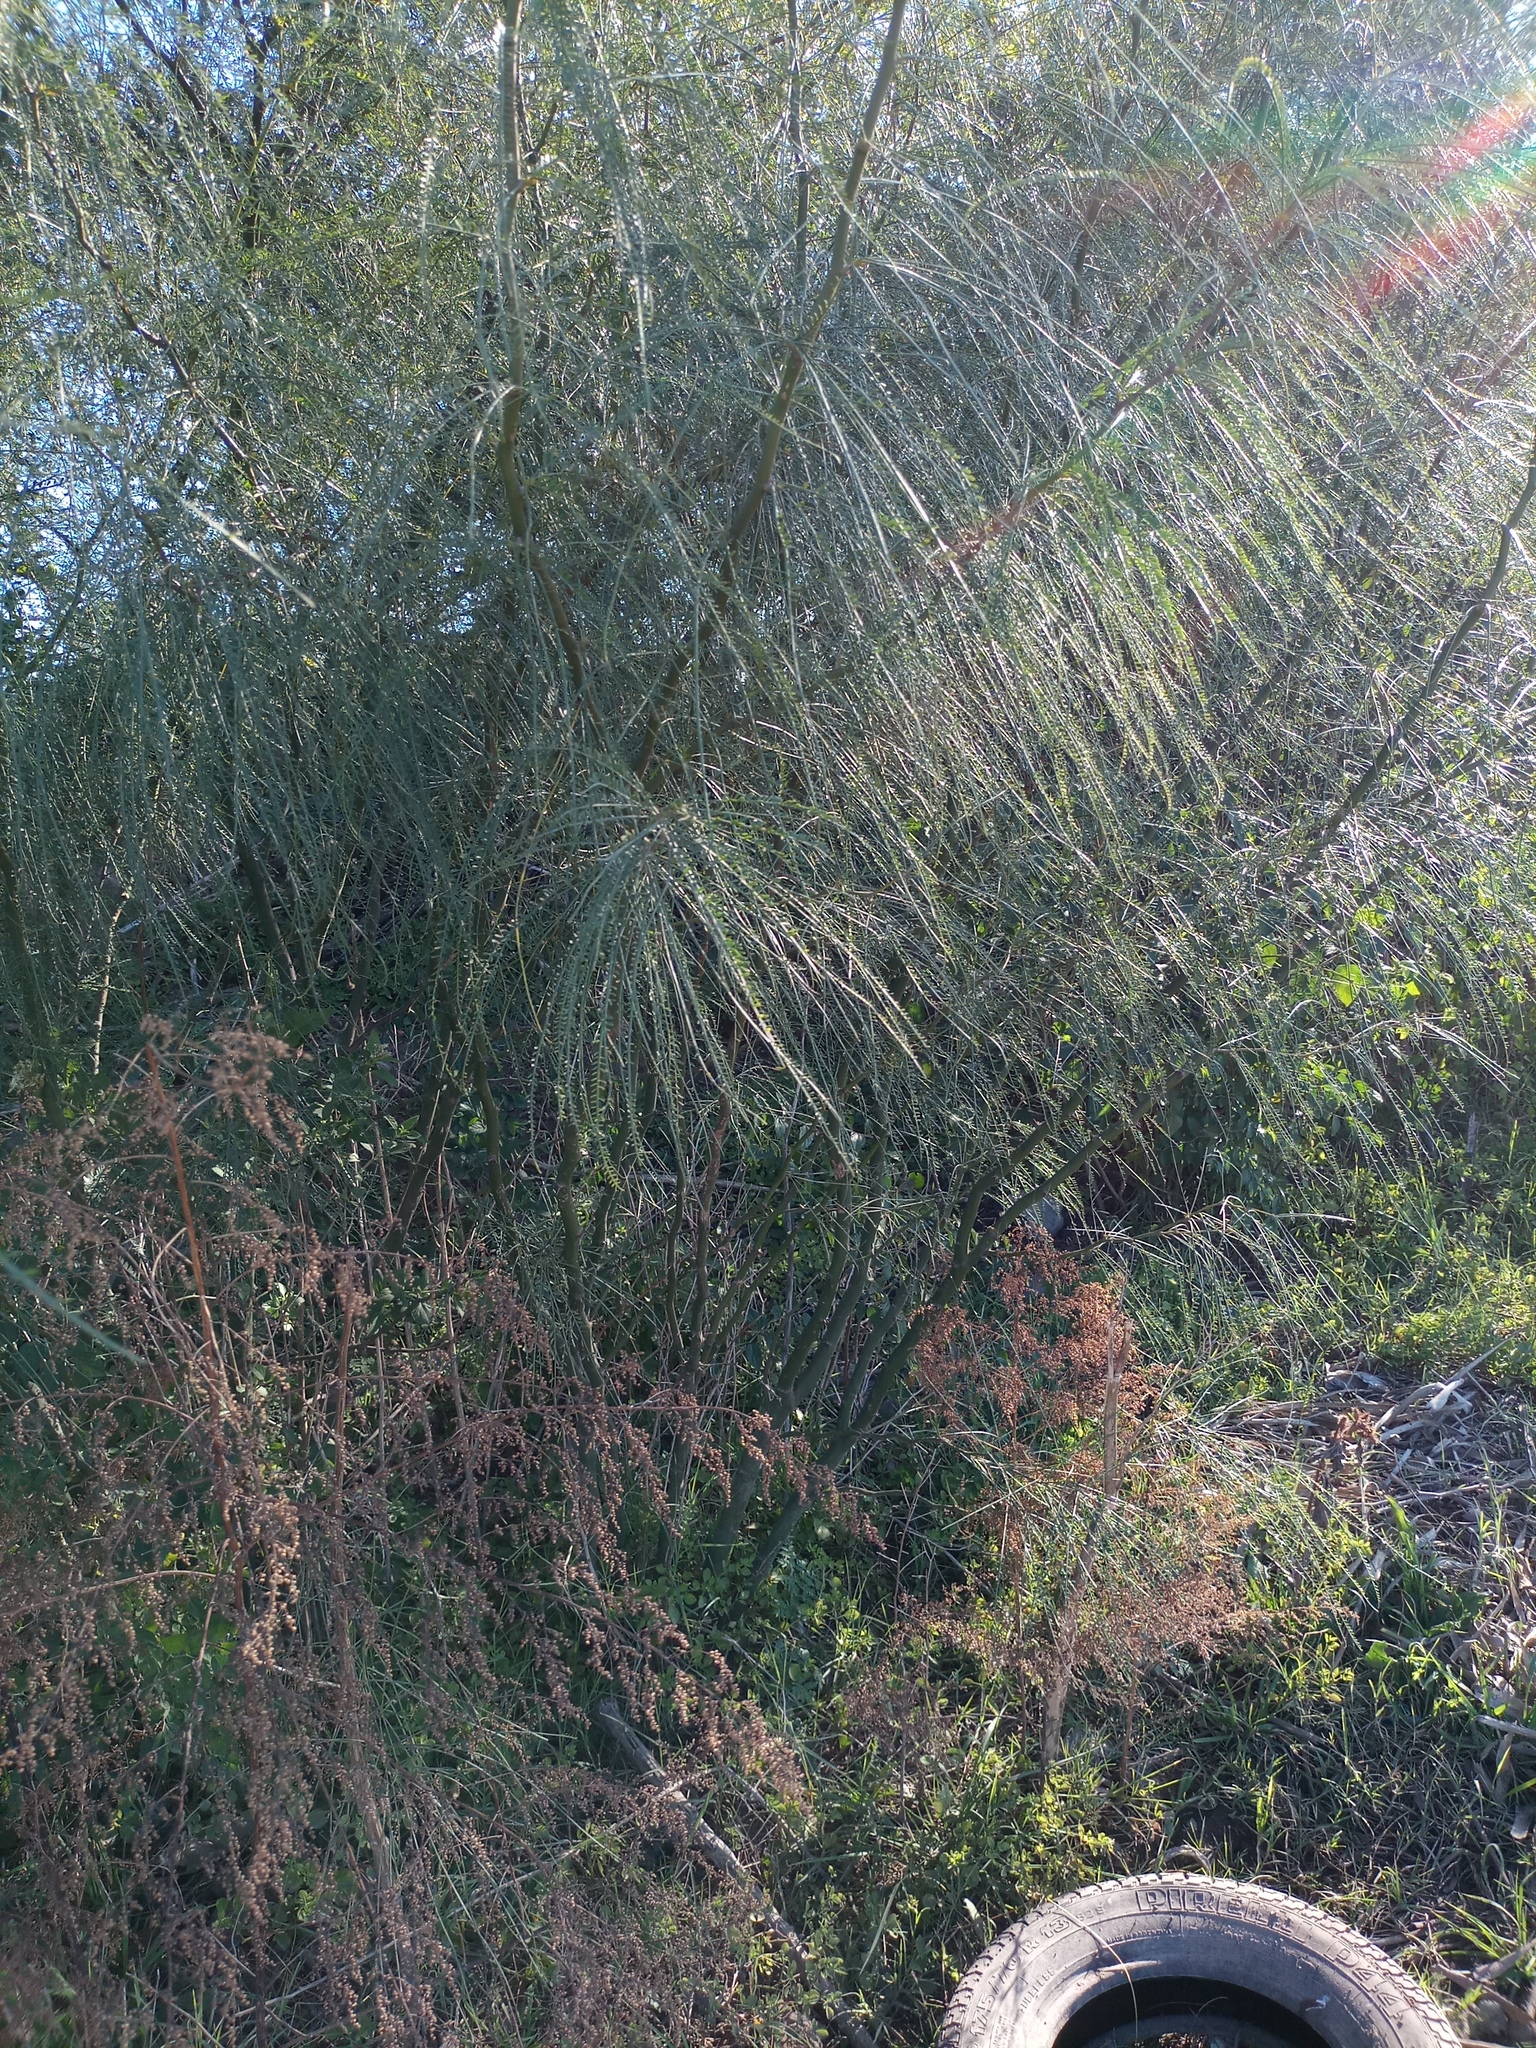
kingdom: Plantae
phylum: Tracheophyta
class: Magnoliopsida
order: Fabales
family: Fabaceae
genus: Parkinsonia
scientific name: Parkinsonia aculeata
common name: Jerusalem thorn
